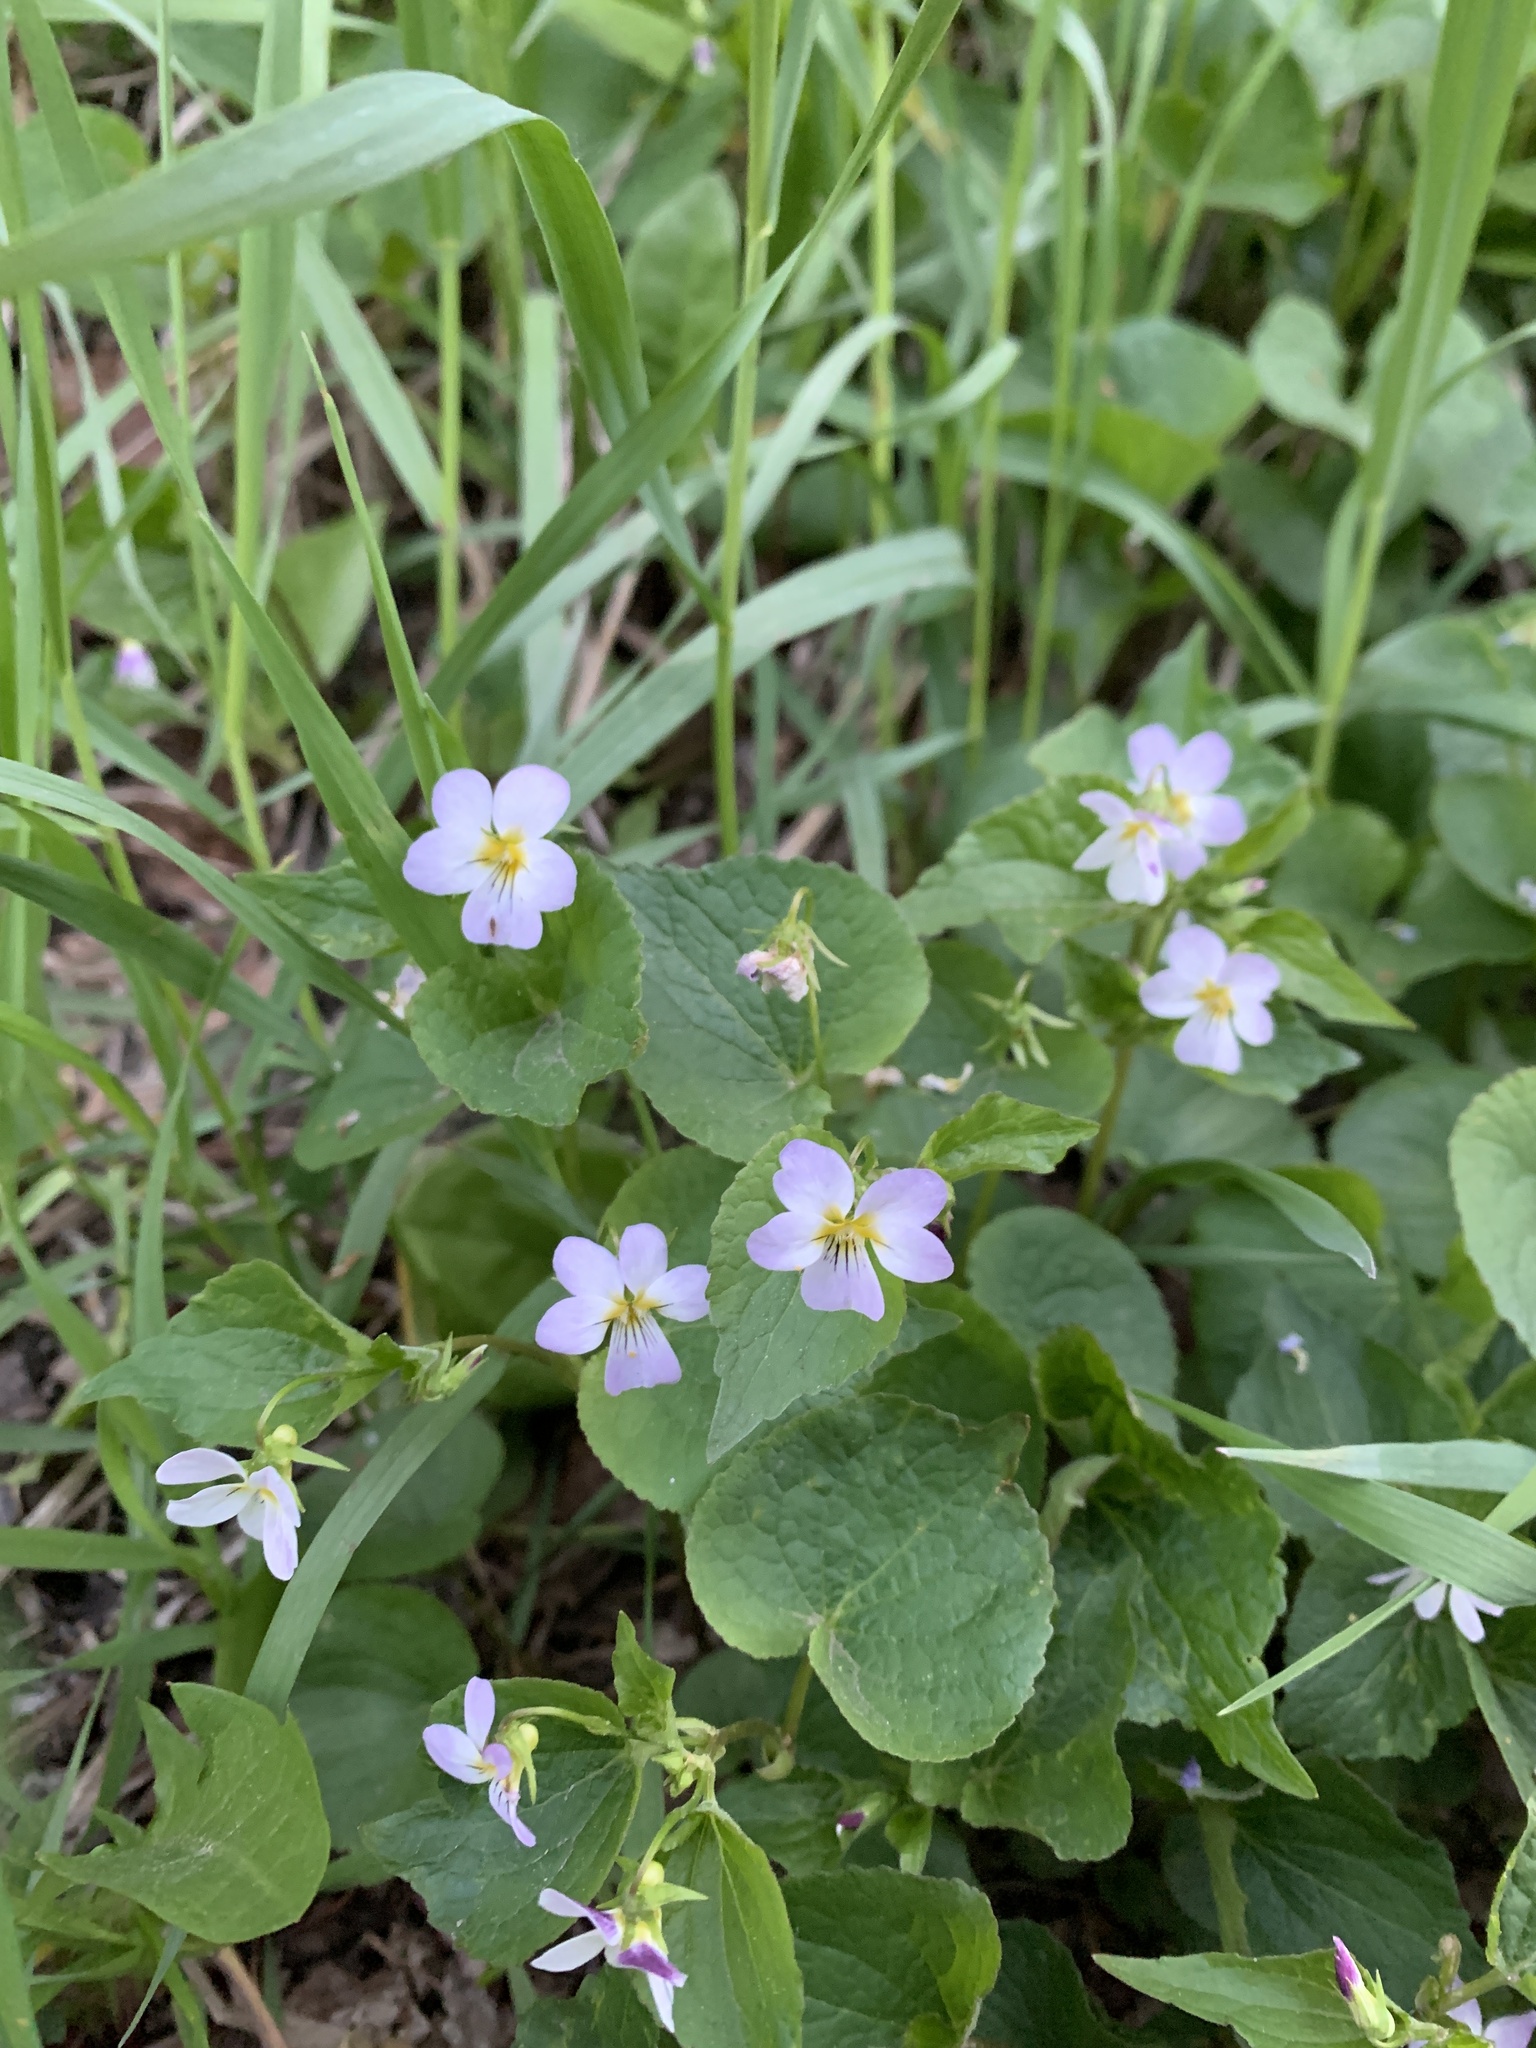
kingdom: Plantae
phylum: Tracheophyta
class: Magnoliopsida
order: Malpighiales
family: Violaceae
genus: Viola
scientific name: Viola canadensis
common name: Canada violet
